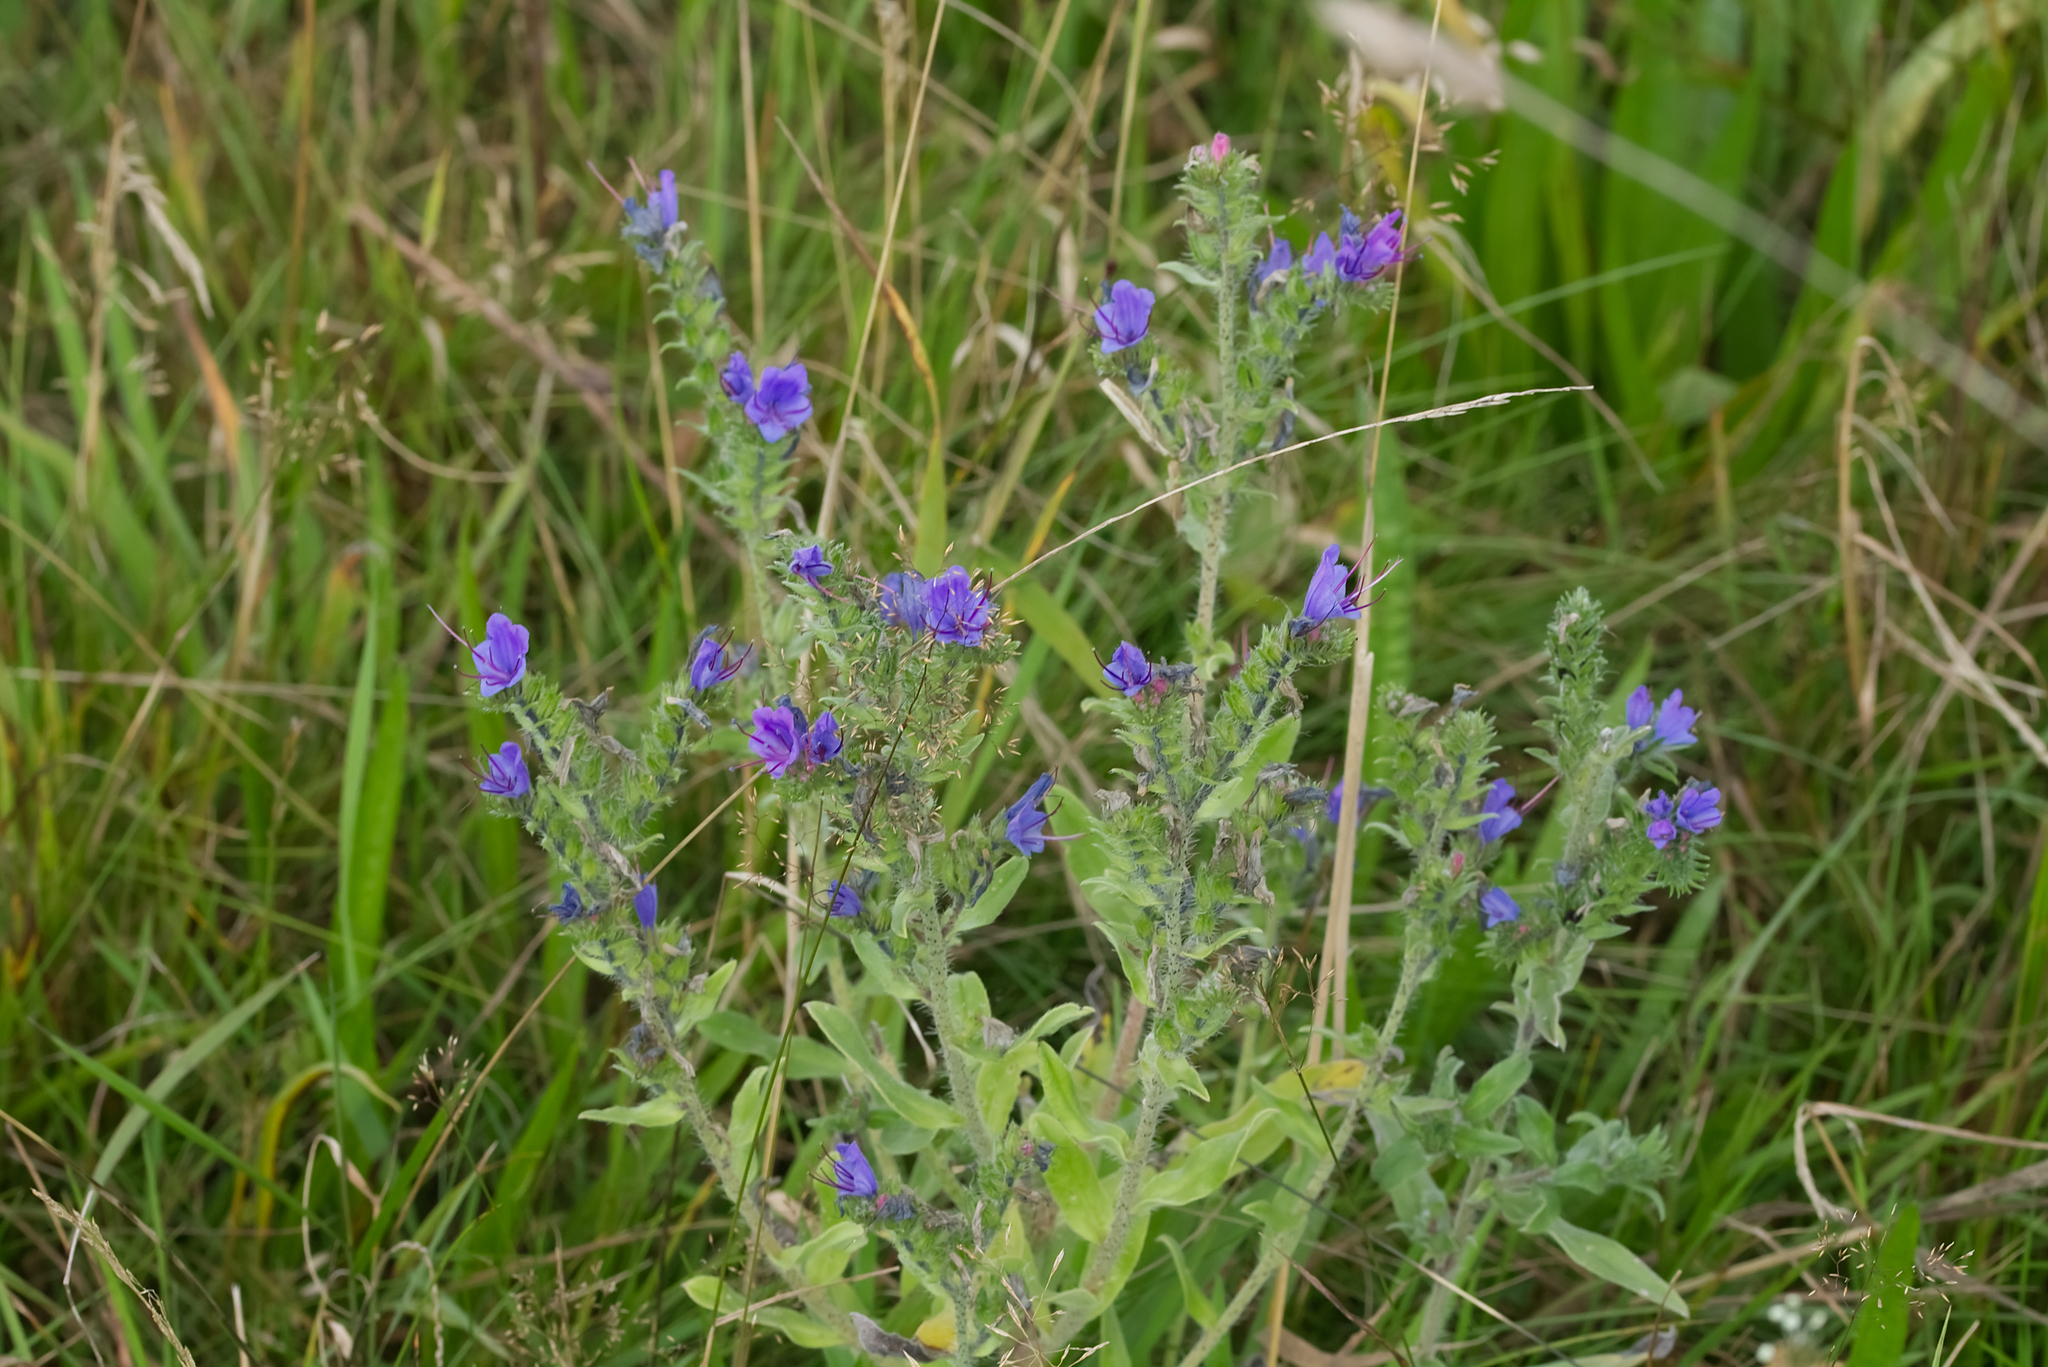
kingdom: Plantae
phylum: Tracheophyta
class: Magnoliopsida
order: Boraginales
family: Boraginaceae
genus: Echium
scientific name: Echium vulgare
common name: Common viper's bugloss
